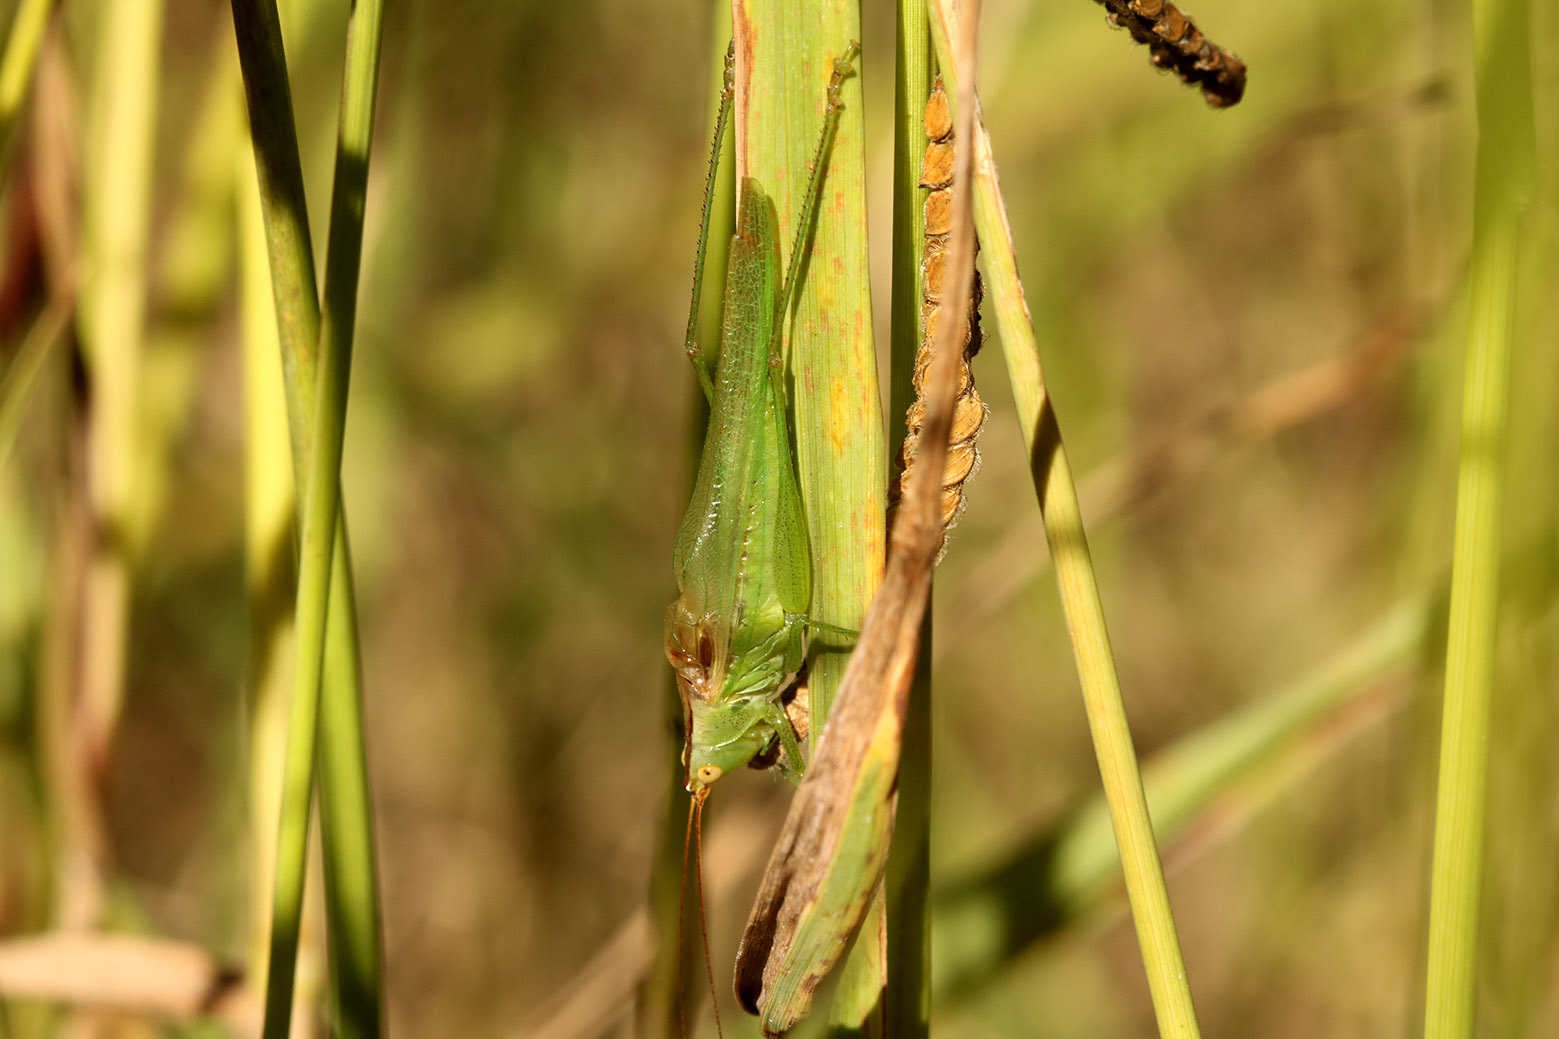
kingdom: Animalia
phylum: Arthropoda
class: Insecta
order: Orthoptera
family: Tettigoniidae
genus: Conocephalus
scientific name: Conocephalus longipes
